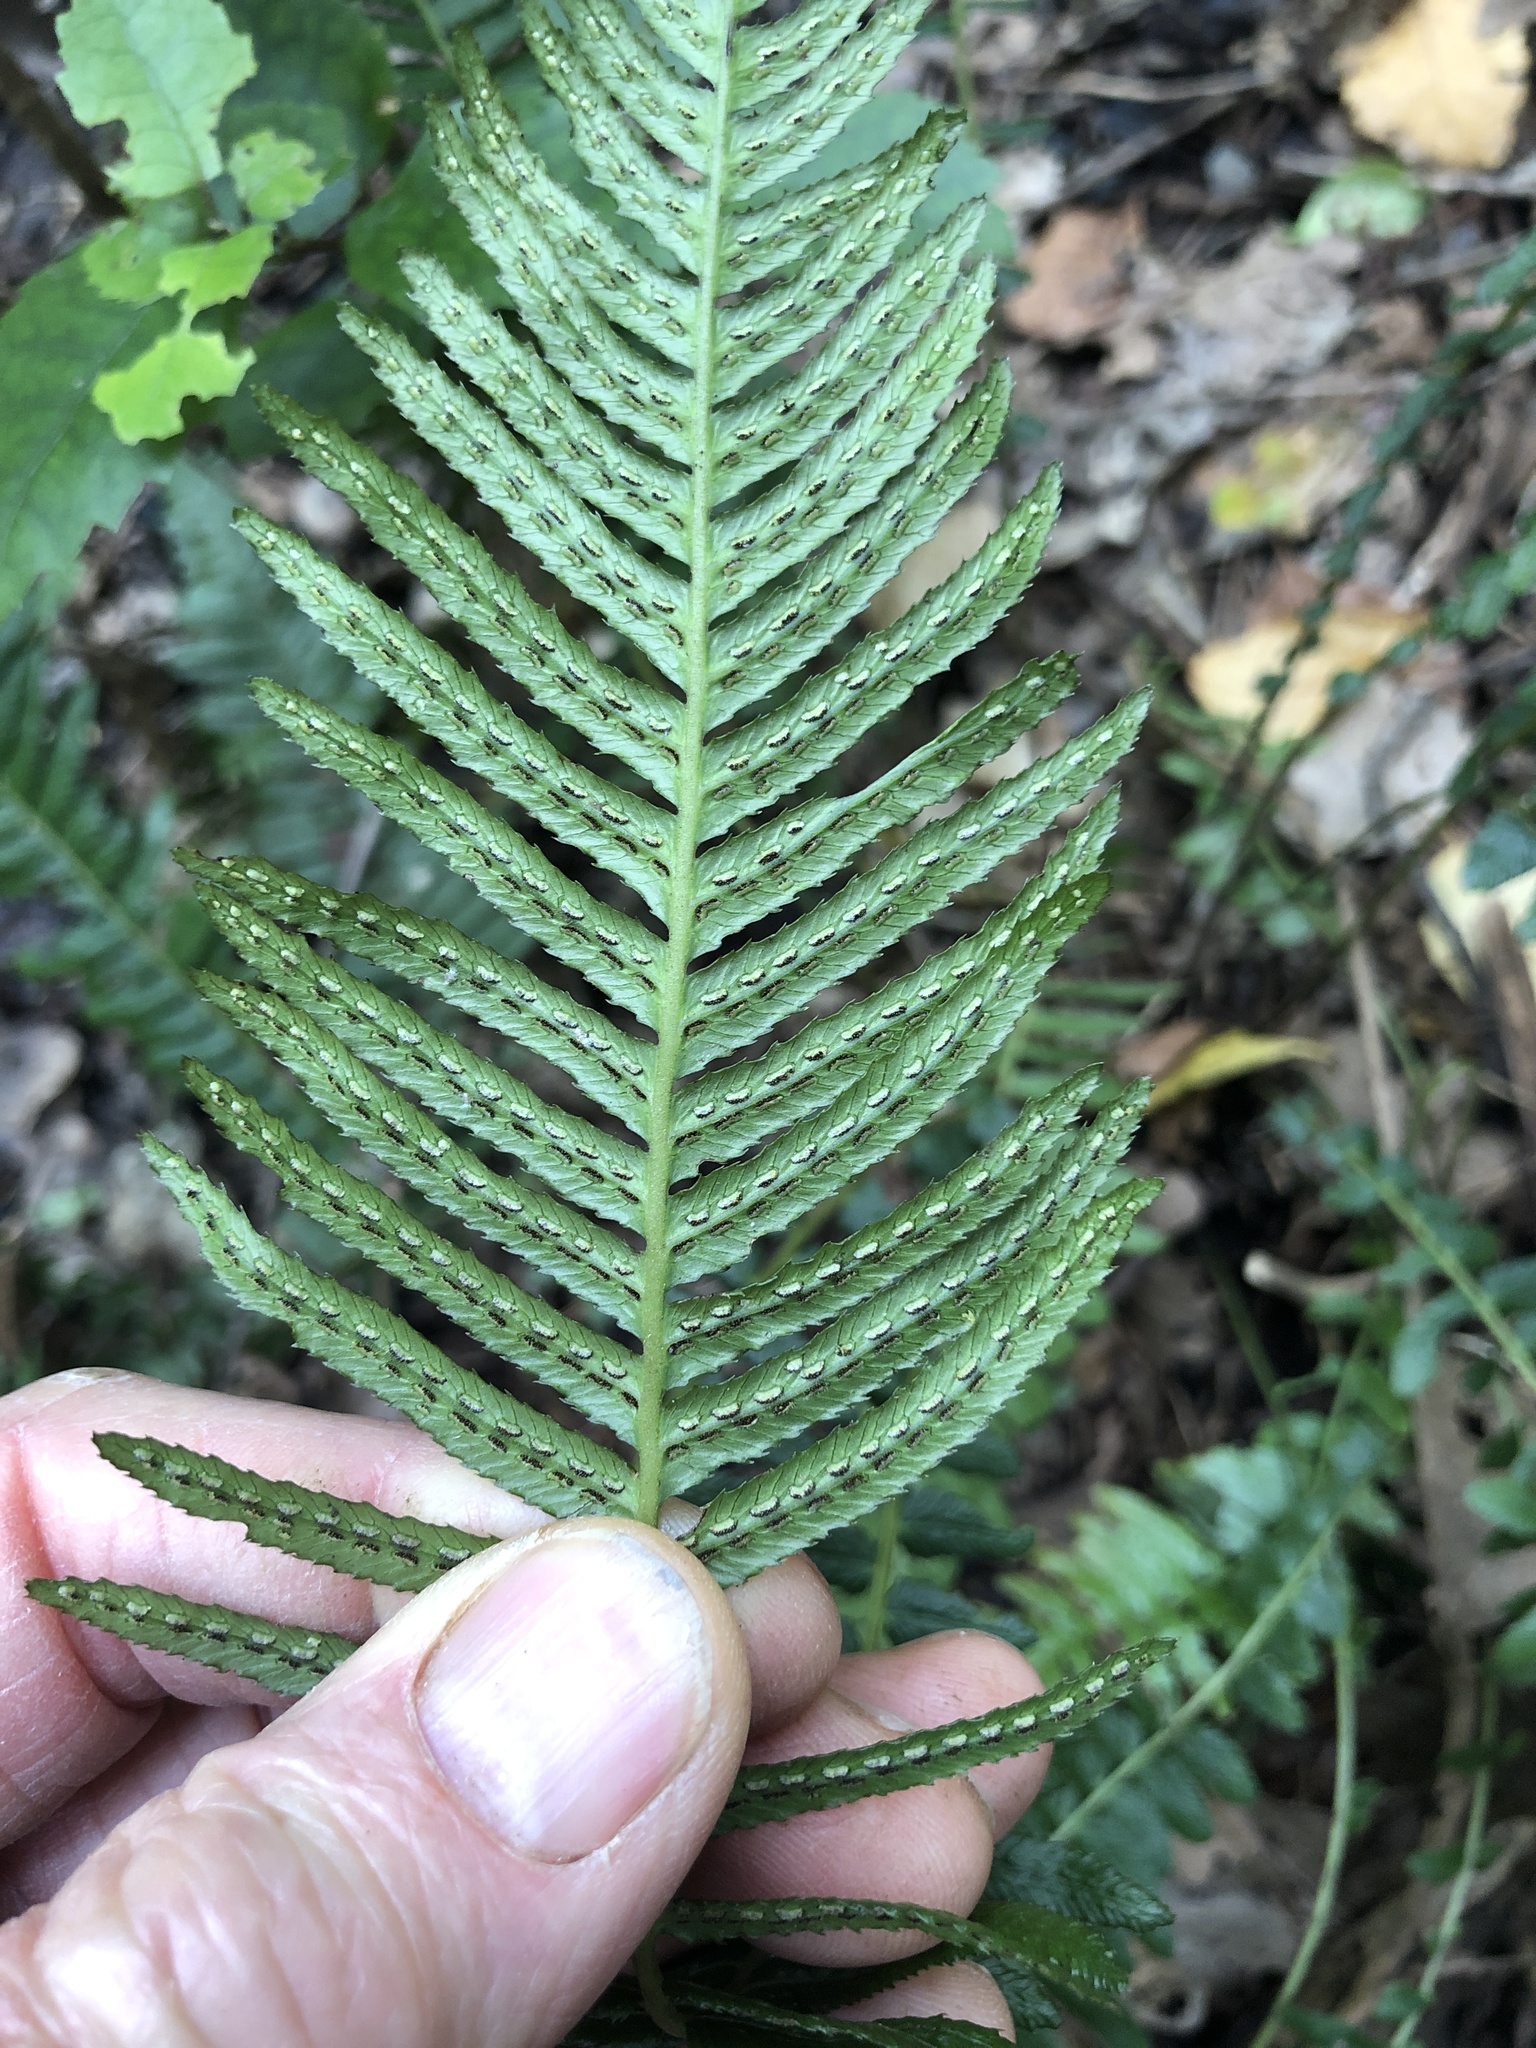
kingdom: Plantae
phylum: Tracheophyta
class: Polypodiopsida
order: Polypodiales
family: Blechnaceae
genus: Doodia
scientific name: Doodia australis
